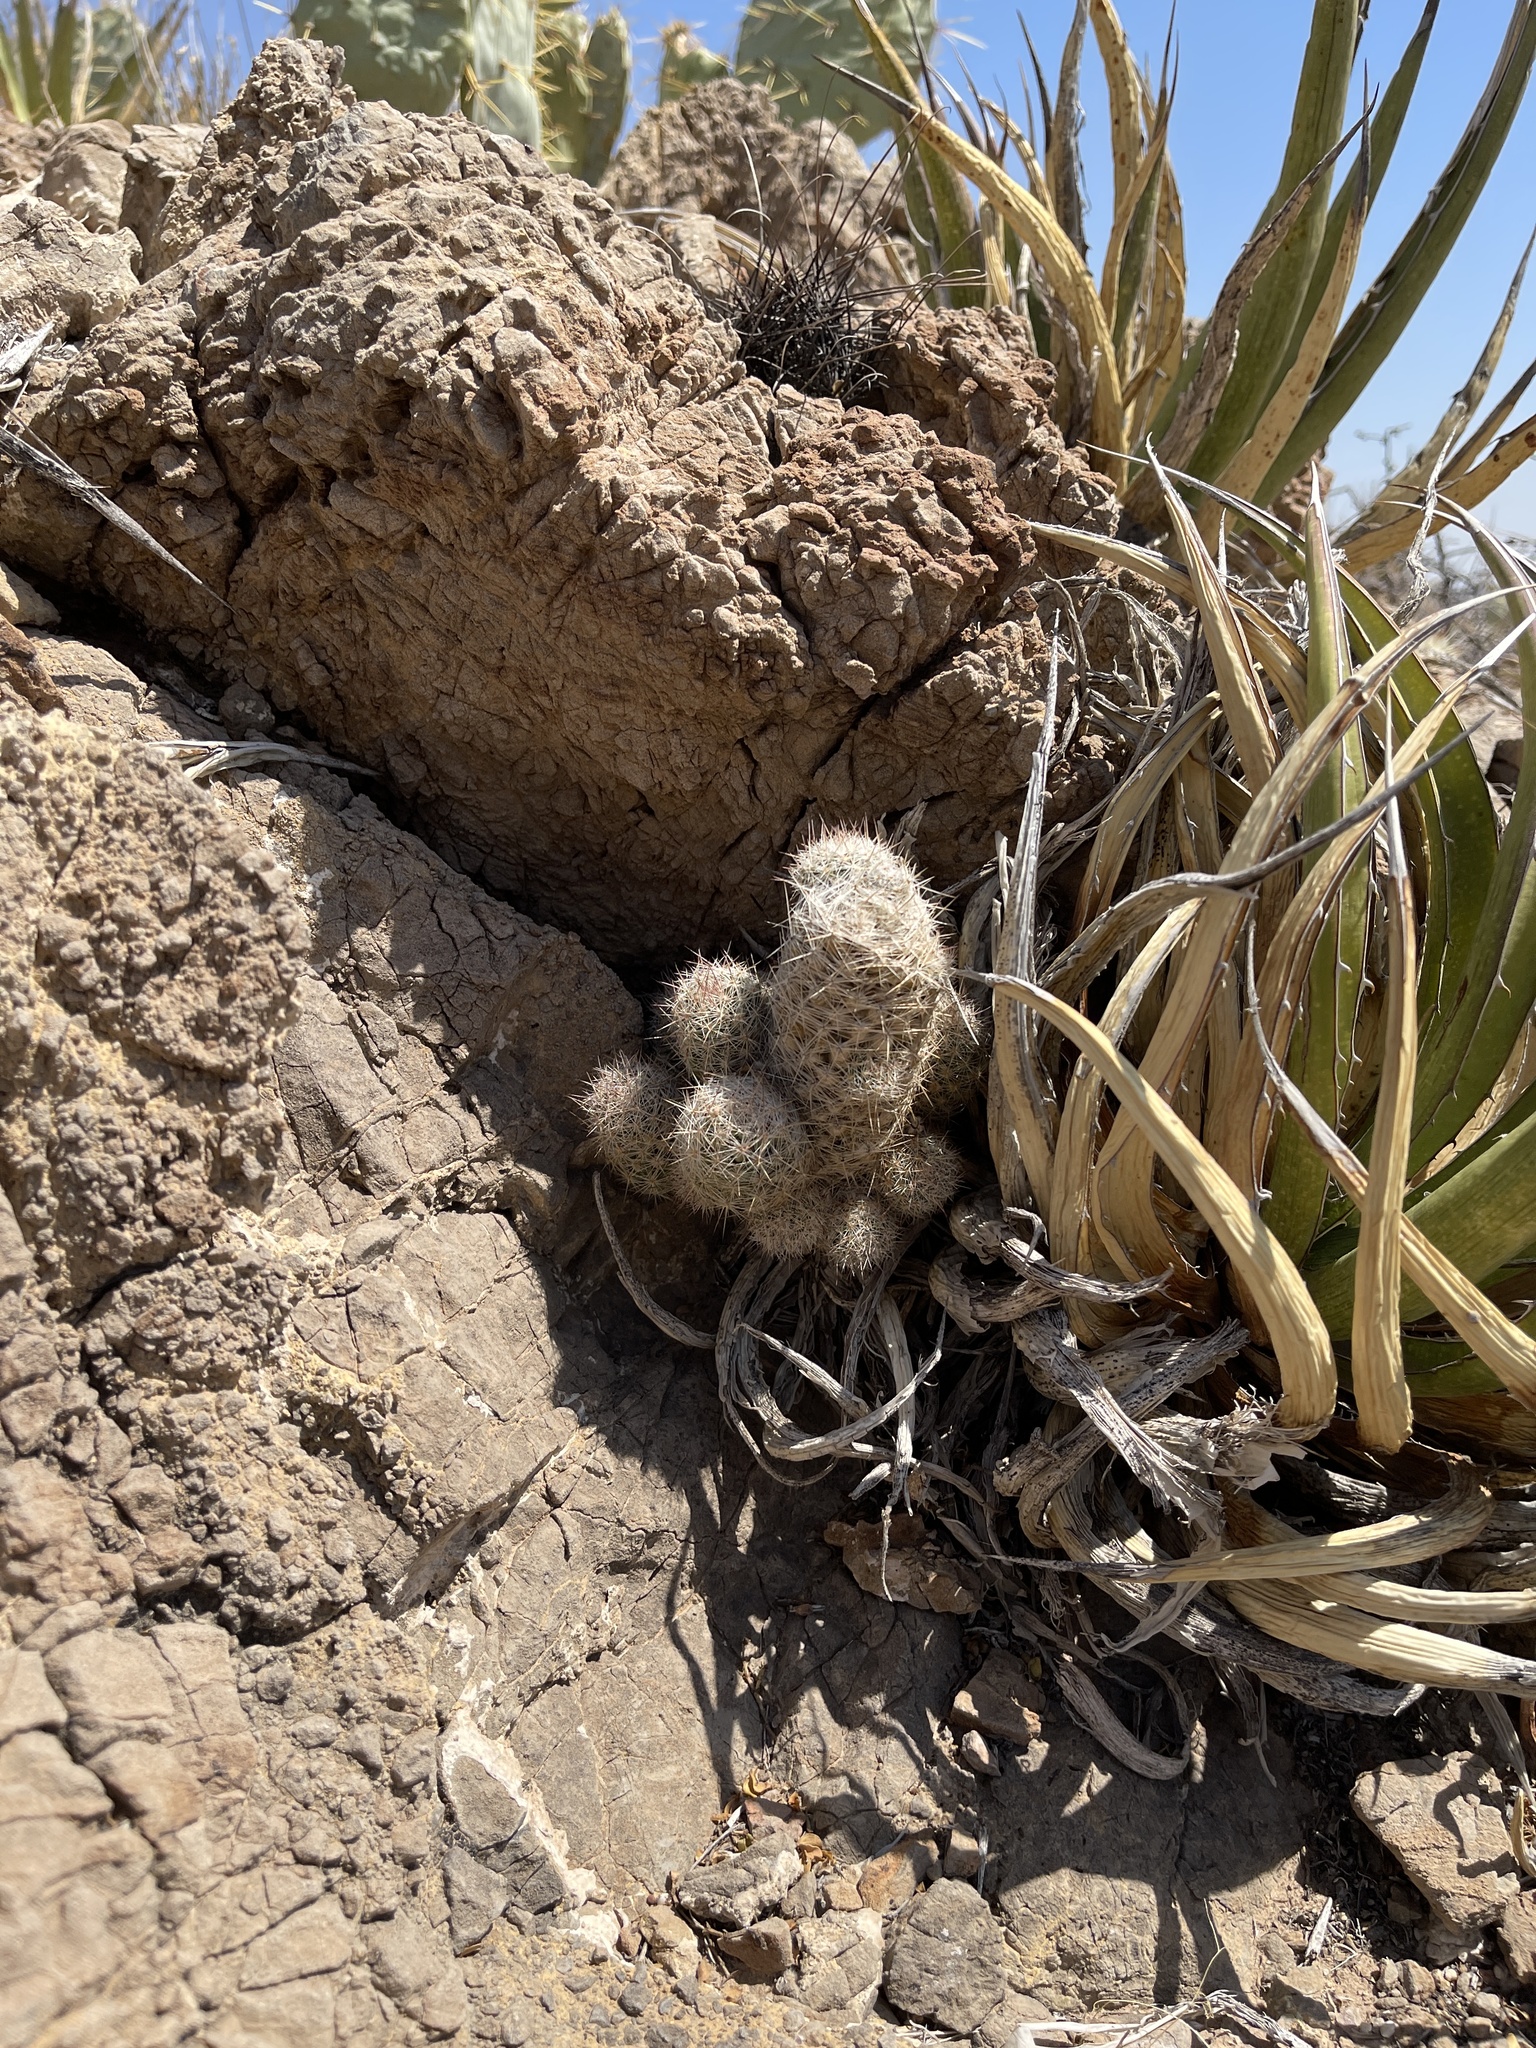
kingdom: Plantae
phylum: Tracheophyta
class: Magnoliopsida
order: Caryophyllales
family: Cactaceae
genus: Pelecyphora
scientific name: Pelecyphora tuberculosa
